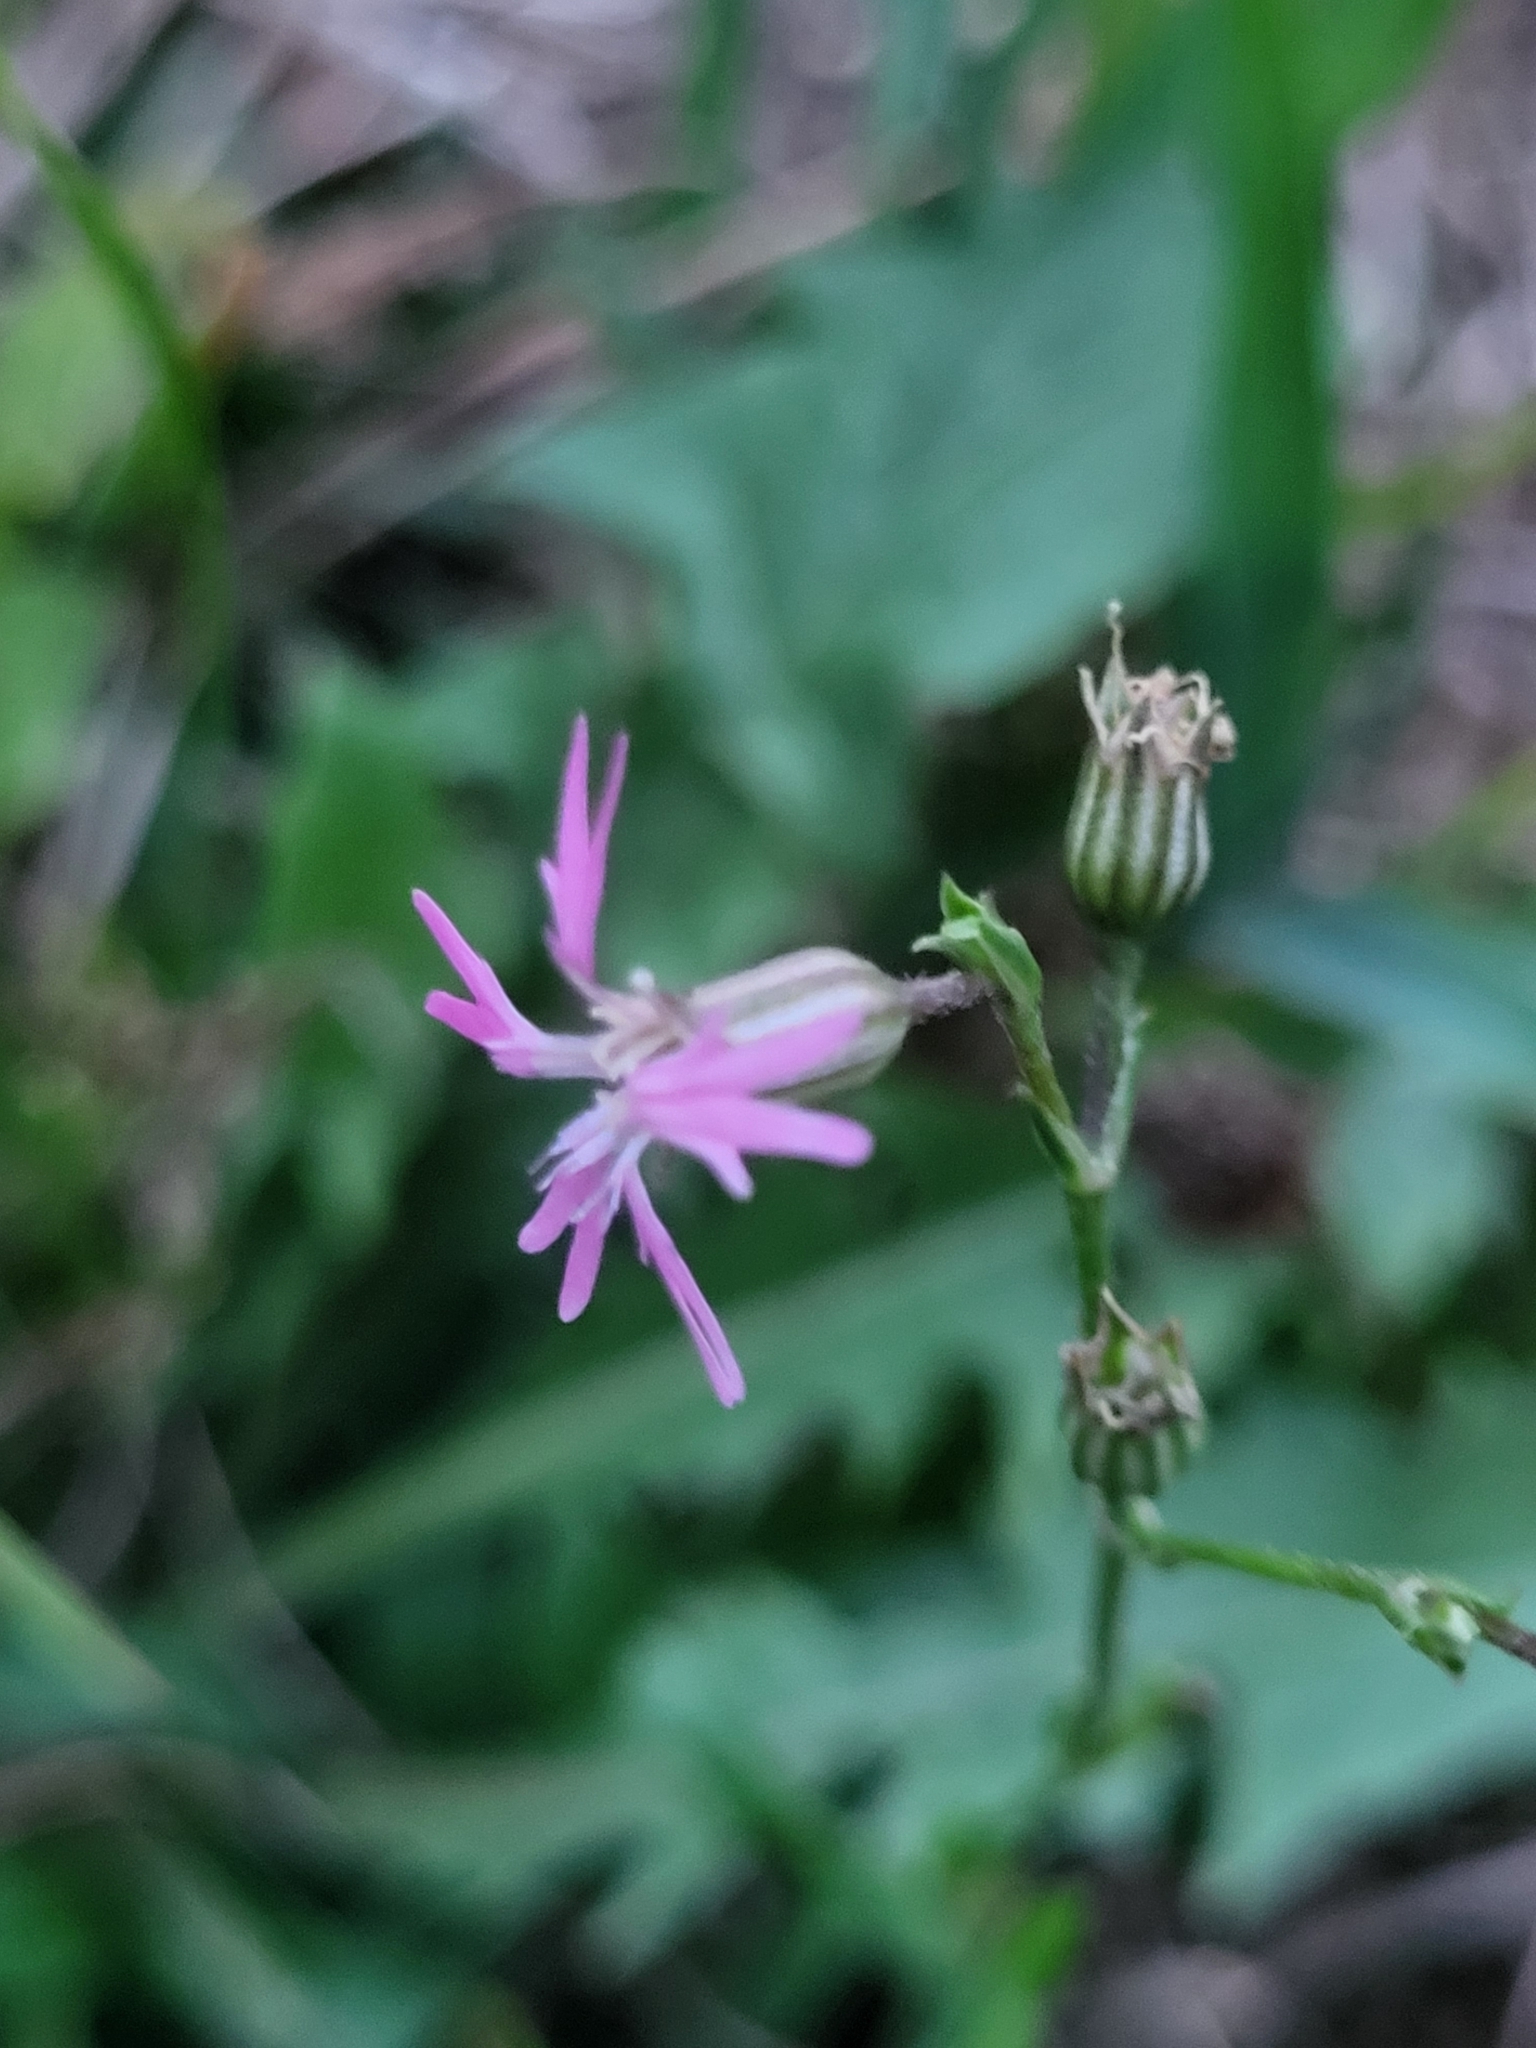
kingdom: Plantae
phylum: Tracheophyta
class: Magnoliopsida
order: Caryophyllales
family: Caryophyllaceae
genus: Silene
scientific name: Silene flos-cuculi
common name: Ragged-robin
